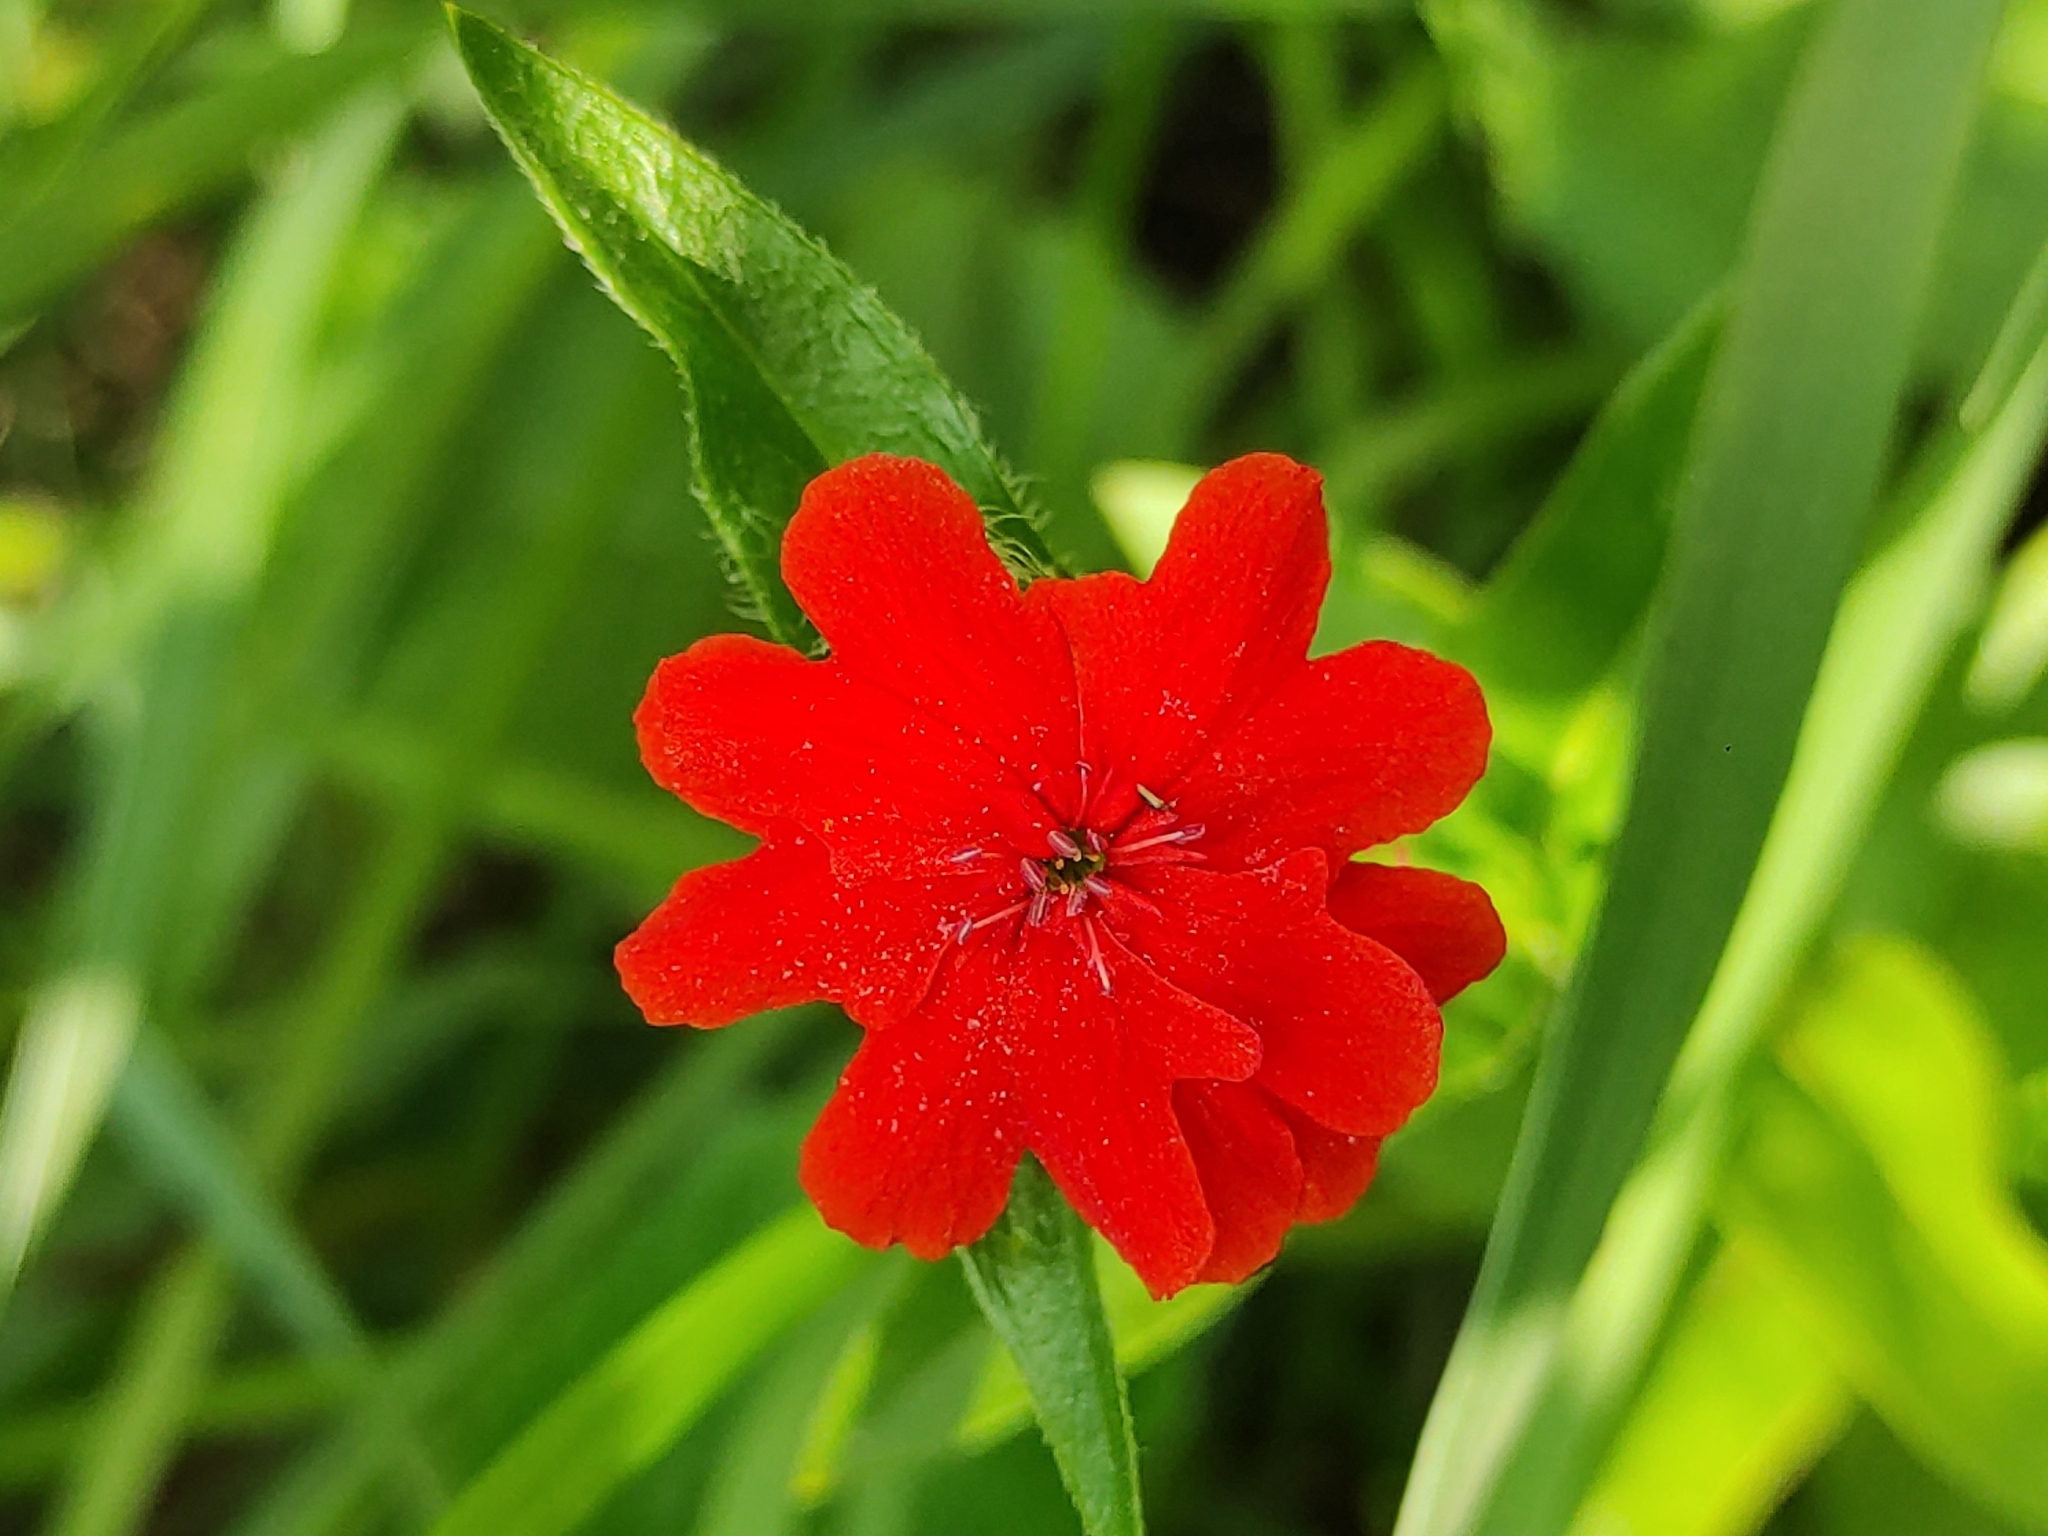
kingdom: Plantae
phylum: Tracheophyta
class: Magnoliopsida
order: Caryophyllales
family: Caryophyllaceae
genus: Silene
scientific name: Silene chalcedonica
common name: Maltese-cross
